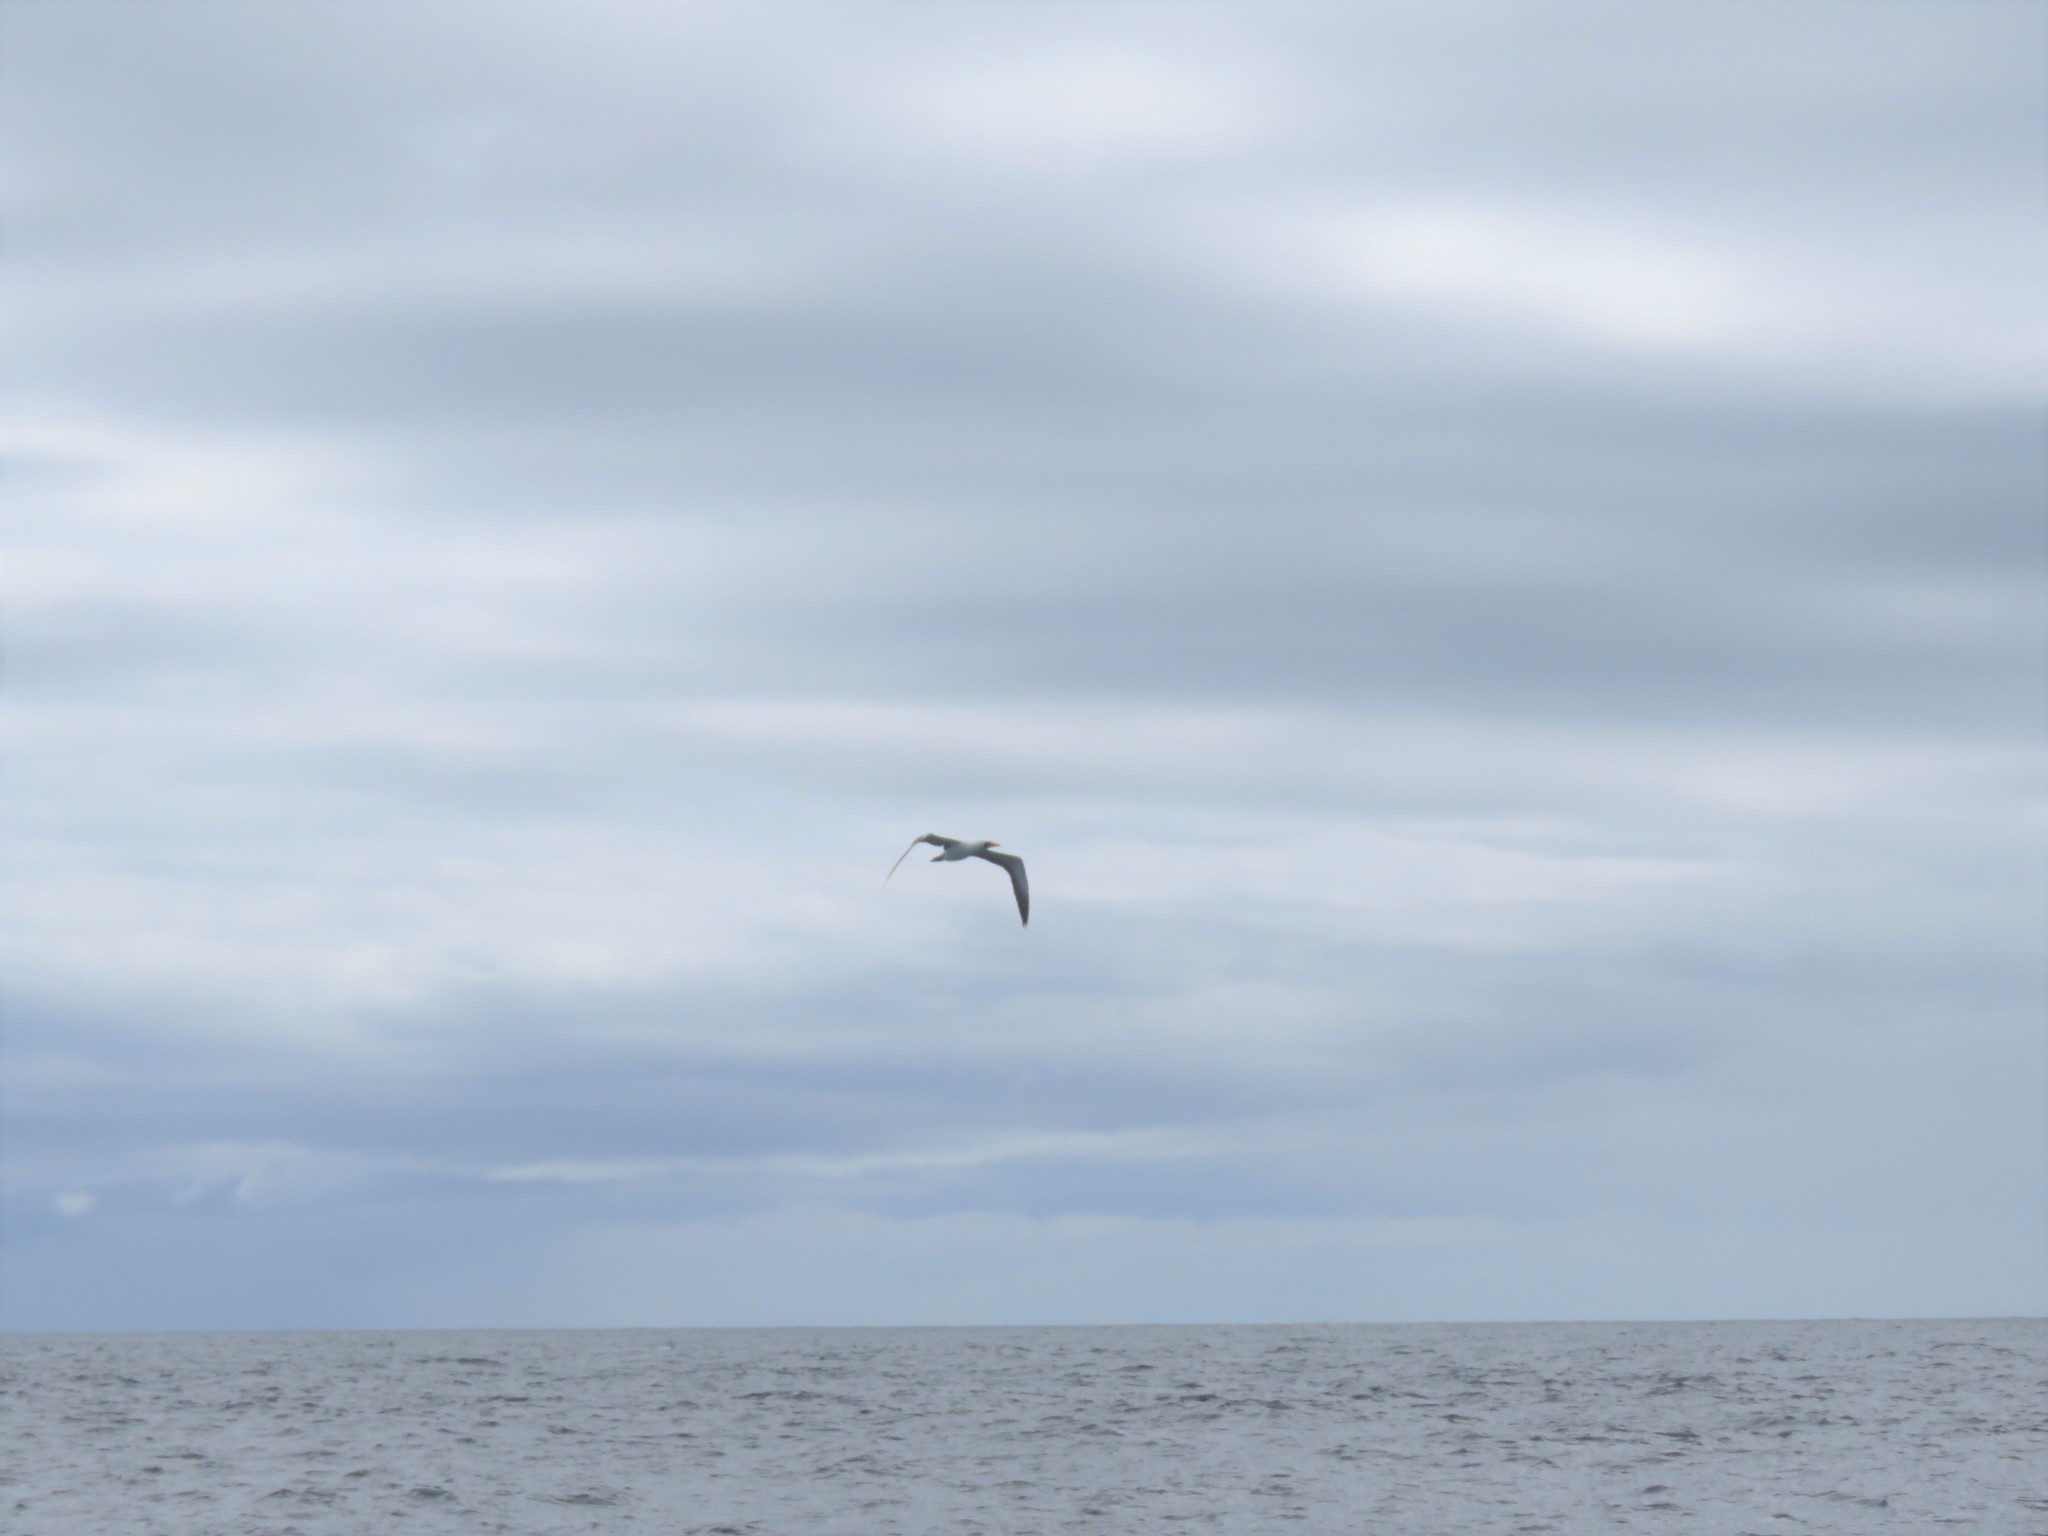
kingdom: Animalia
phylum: Chordata
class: Aves
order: Suliformes
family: Sulidae
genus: Sula
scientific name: Sula granti
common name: Nazca booby
